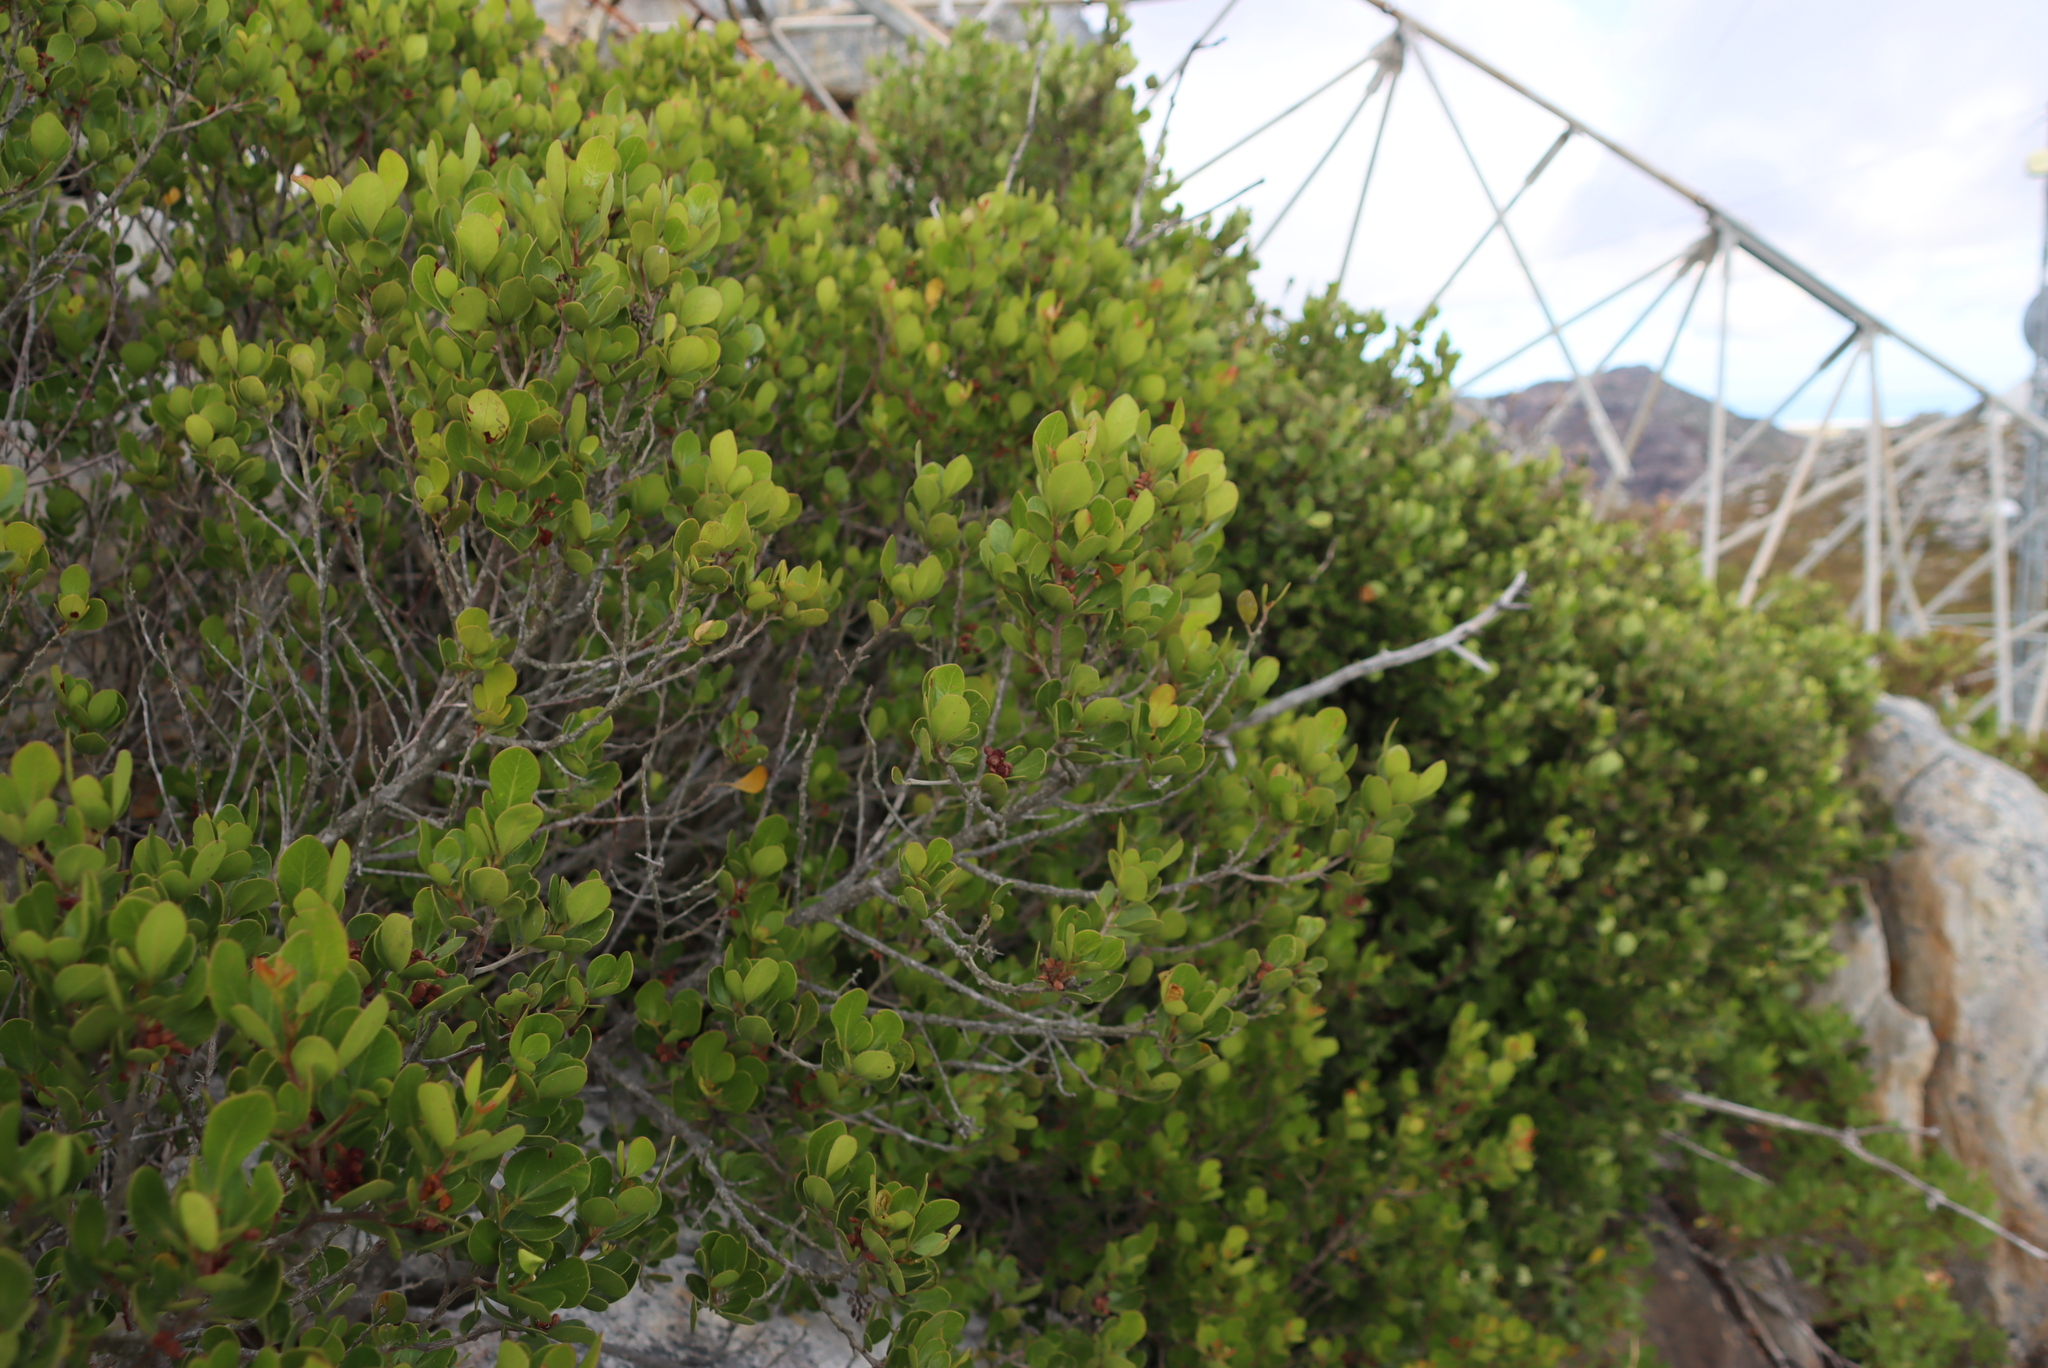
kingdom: Plantae
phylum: Tracheophyta
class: Magnoliopsida
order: Sapindales
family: Anacardiaceae
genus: Searsia
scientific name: Searsia lucida
